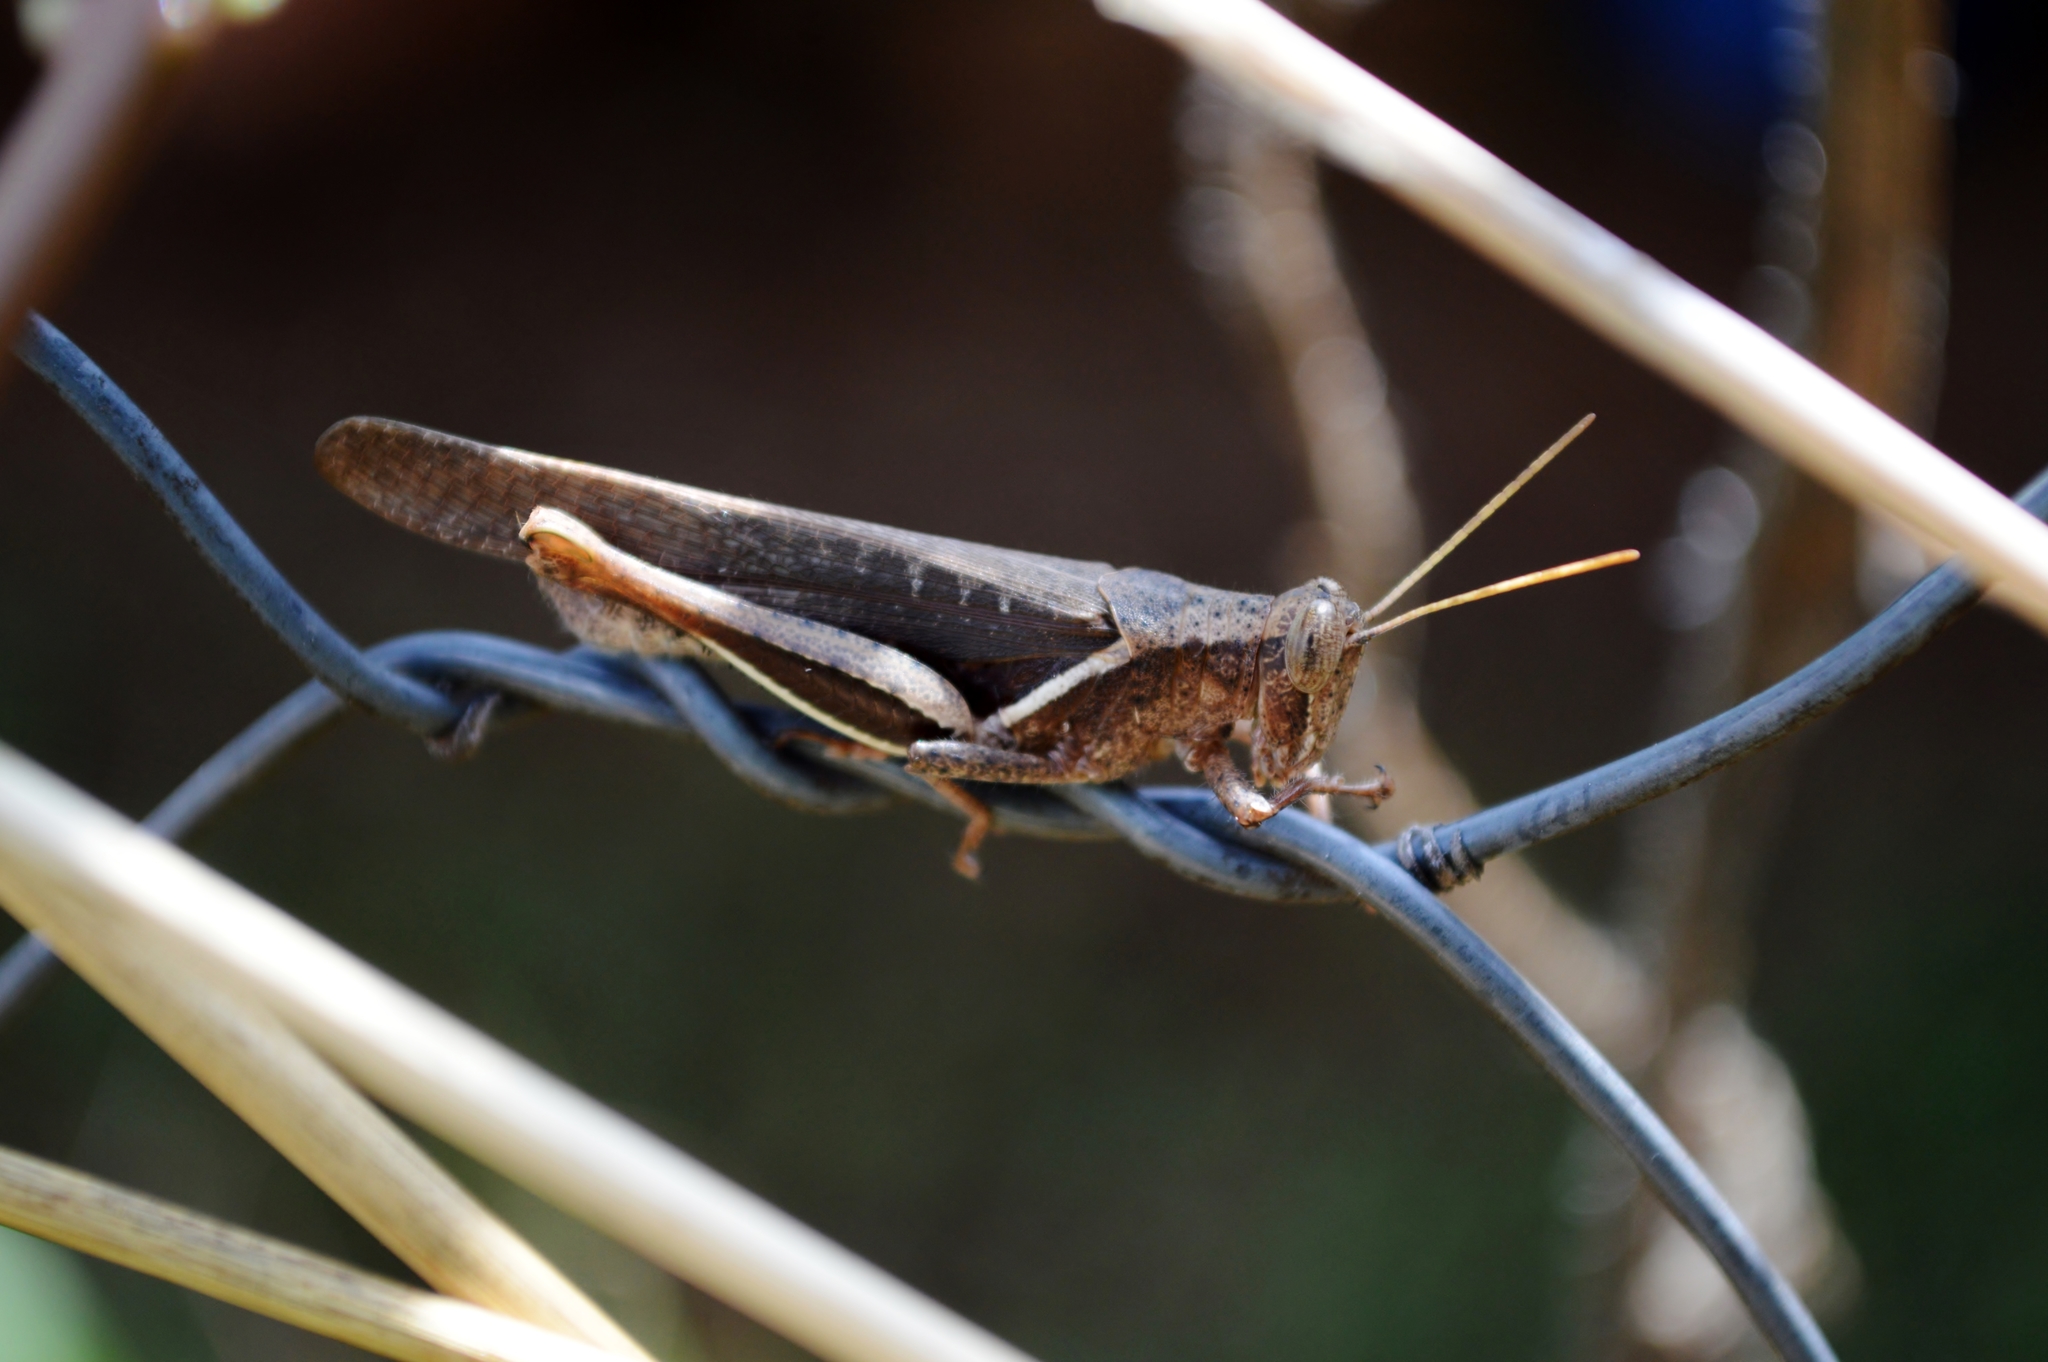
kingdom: Animalia
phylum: Arthropoda
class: Insecta
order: Orthoptera
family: Acrididae
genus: Abracris
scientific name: Abracris flavolineata
